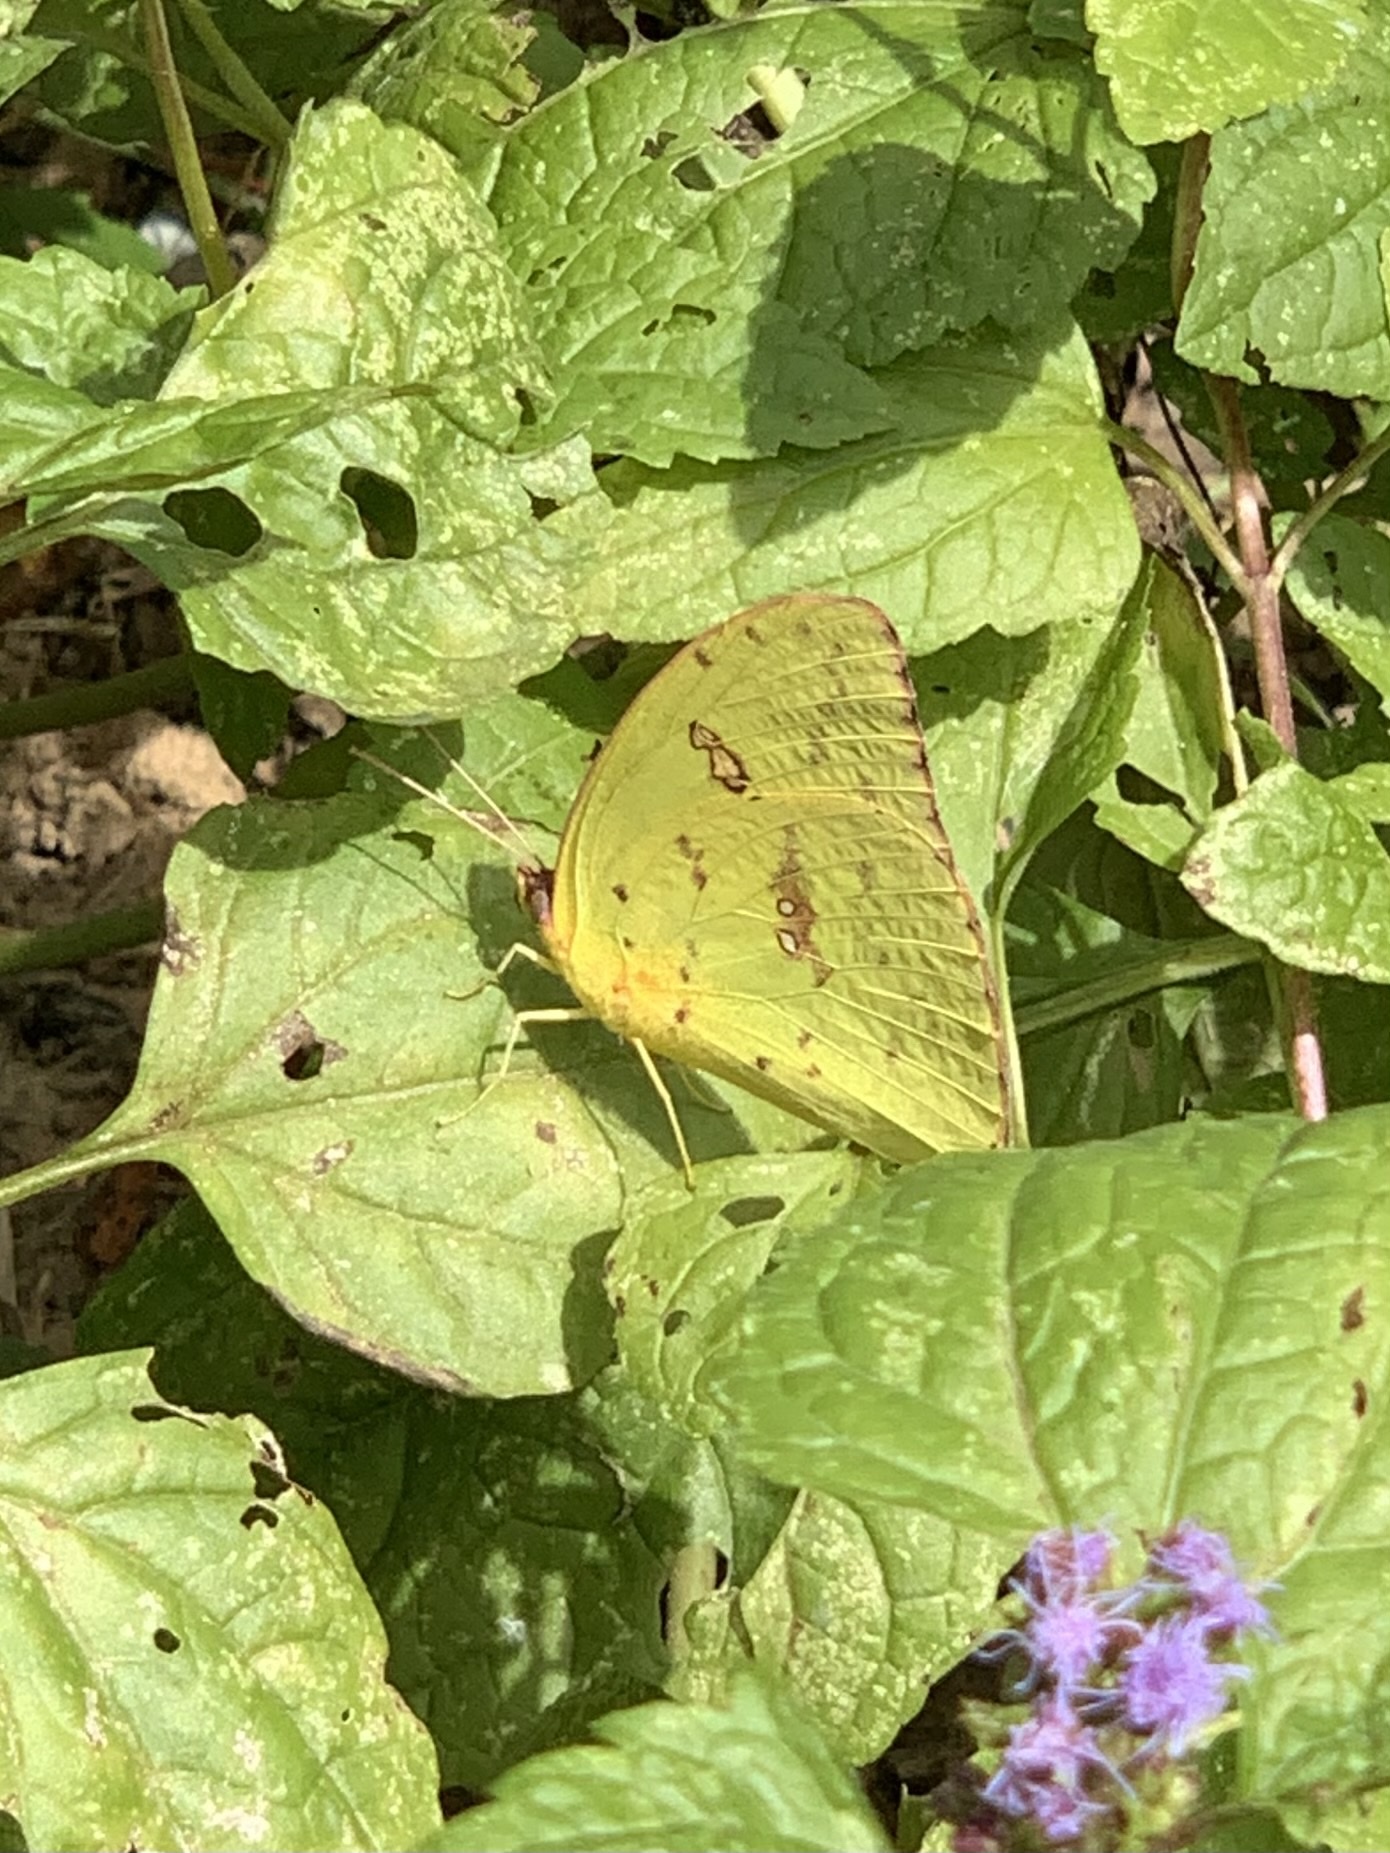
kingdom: Animalia
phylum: Arthropoda
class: Insecta
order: Lepidoptera
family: Pieridae
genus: Phoebis
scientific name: Phoebis sennae
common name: Cloudless sulphur
